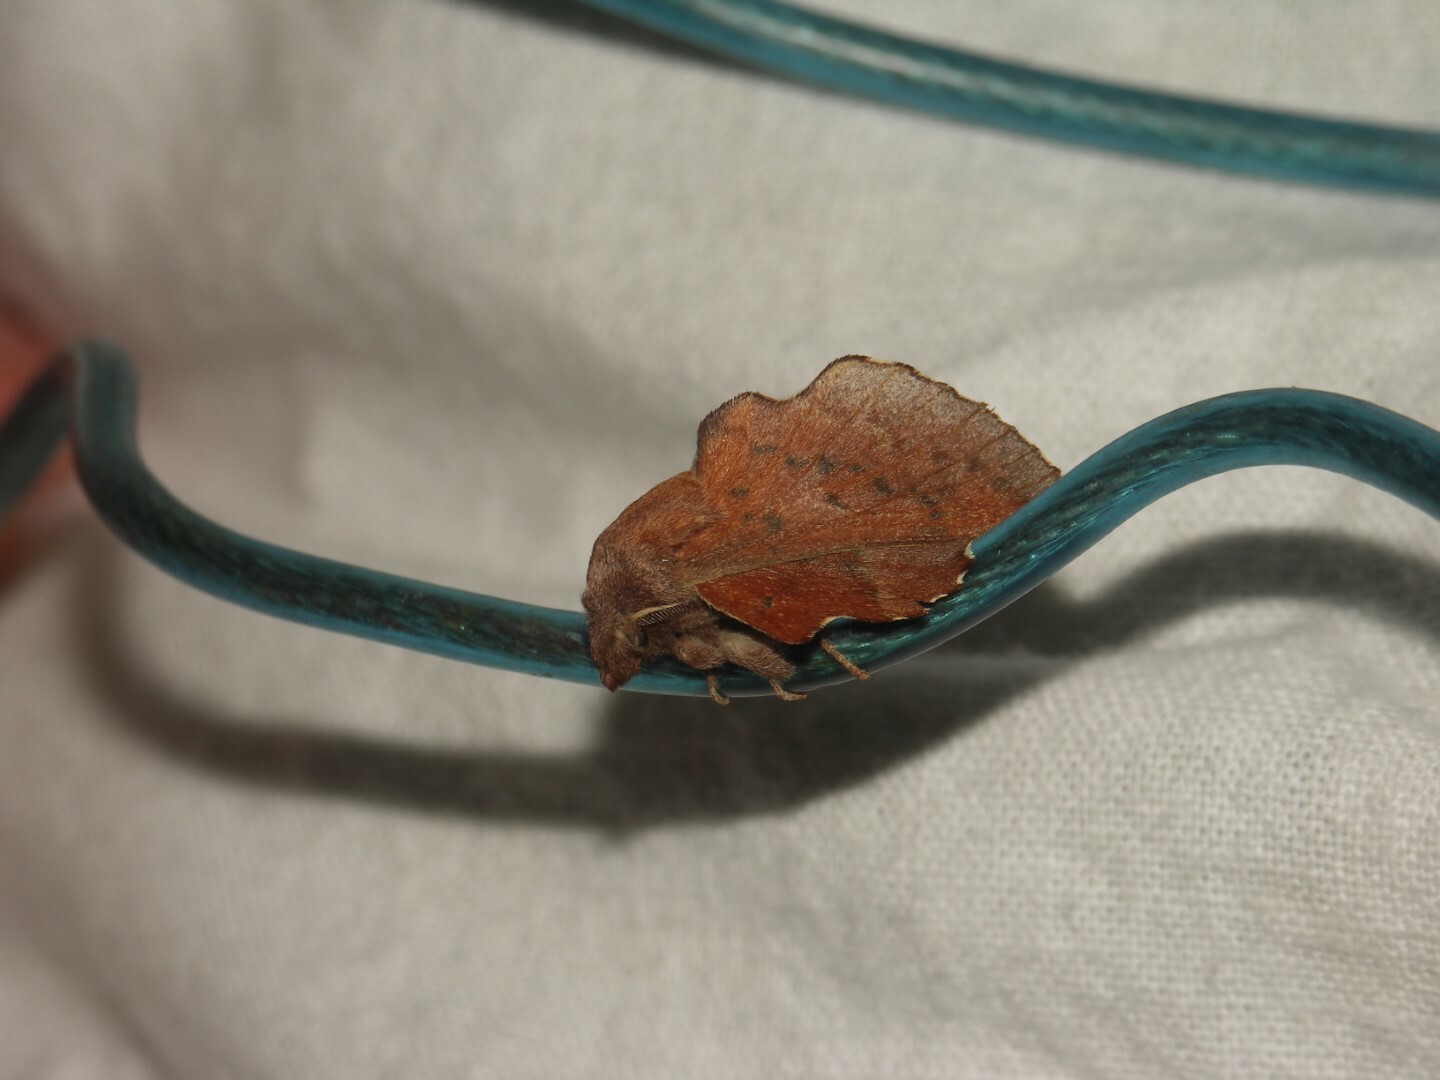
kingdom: Animalia
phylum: Arthropoda
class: Insecta
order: Lepidoptera
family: Lasiocampidae
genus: Phyllodesma
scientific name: Phyllodesma tremulifolia
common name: Aspen lappet
